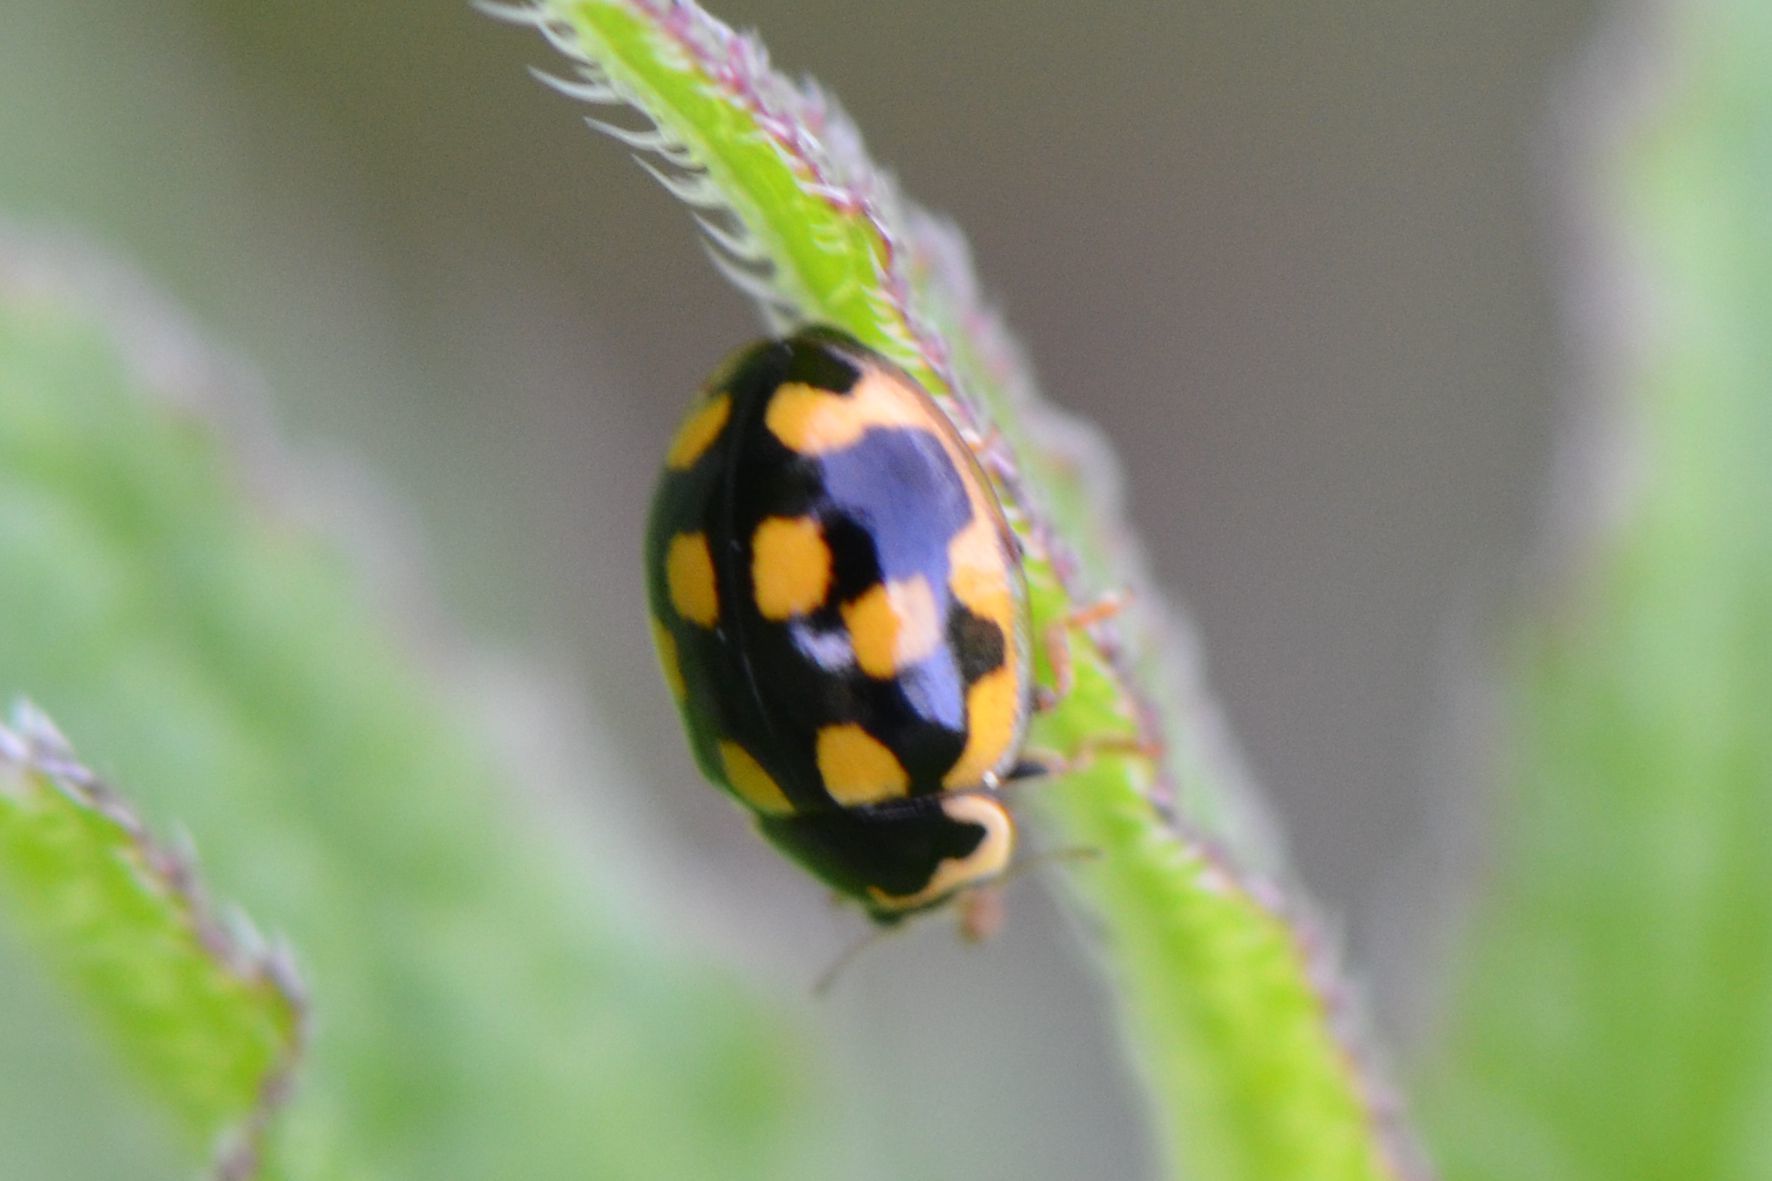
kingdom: Animalia
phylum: Arthropoda
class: Insecta
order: Coleoptera
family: Coccinellidae
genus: Propylaea
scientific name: Propylaea quatuordecimpunctata
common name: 14-spotted ladybird beetle
